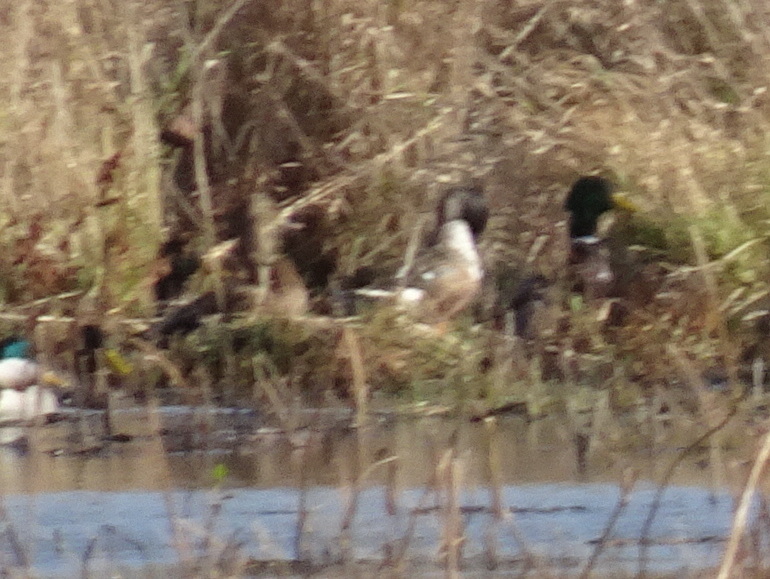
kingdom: Animalia
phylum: Chordata
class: Aves
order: Anseriformes
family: Anatidae
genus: Anas
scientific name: Anas platyrhynchos
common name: Mallard
